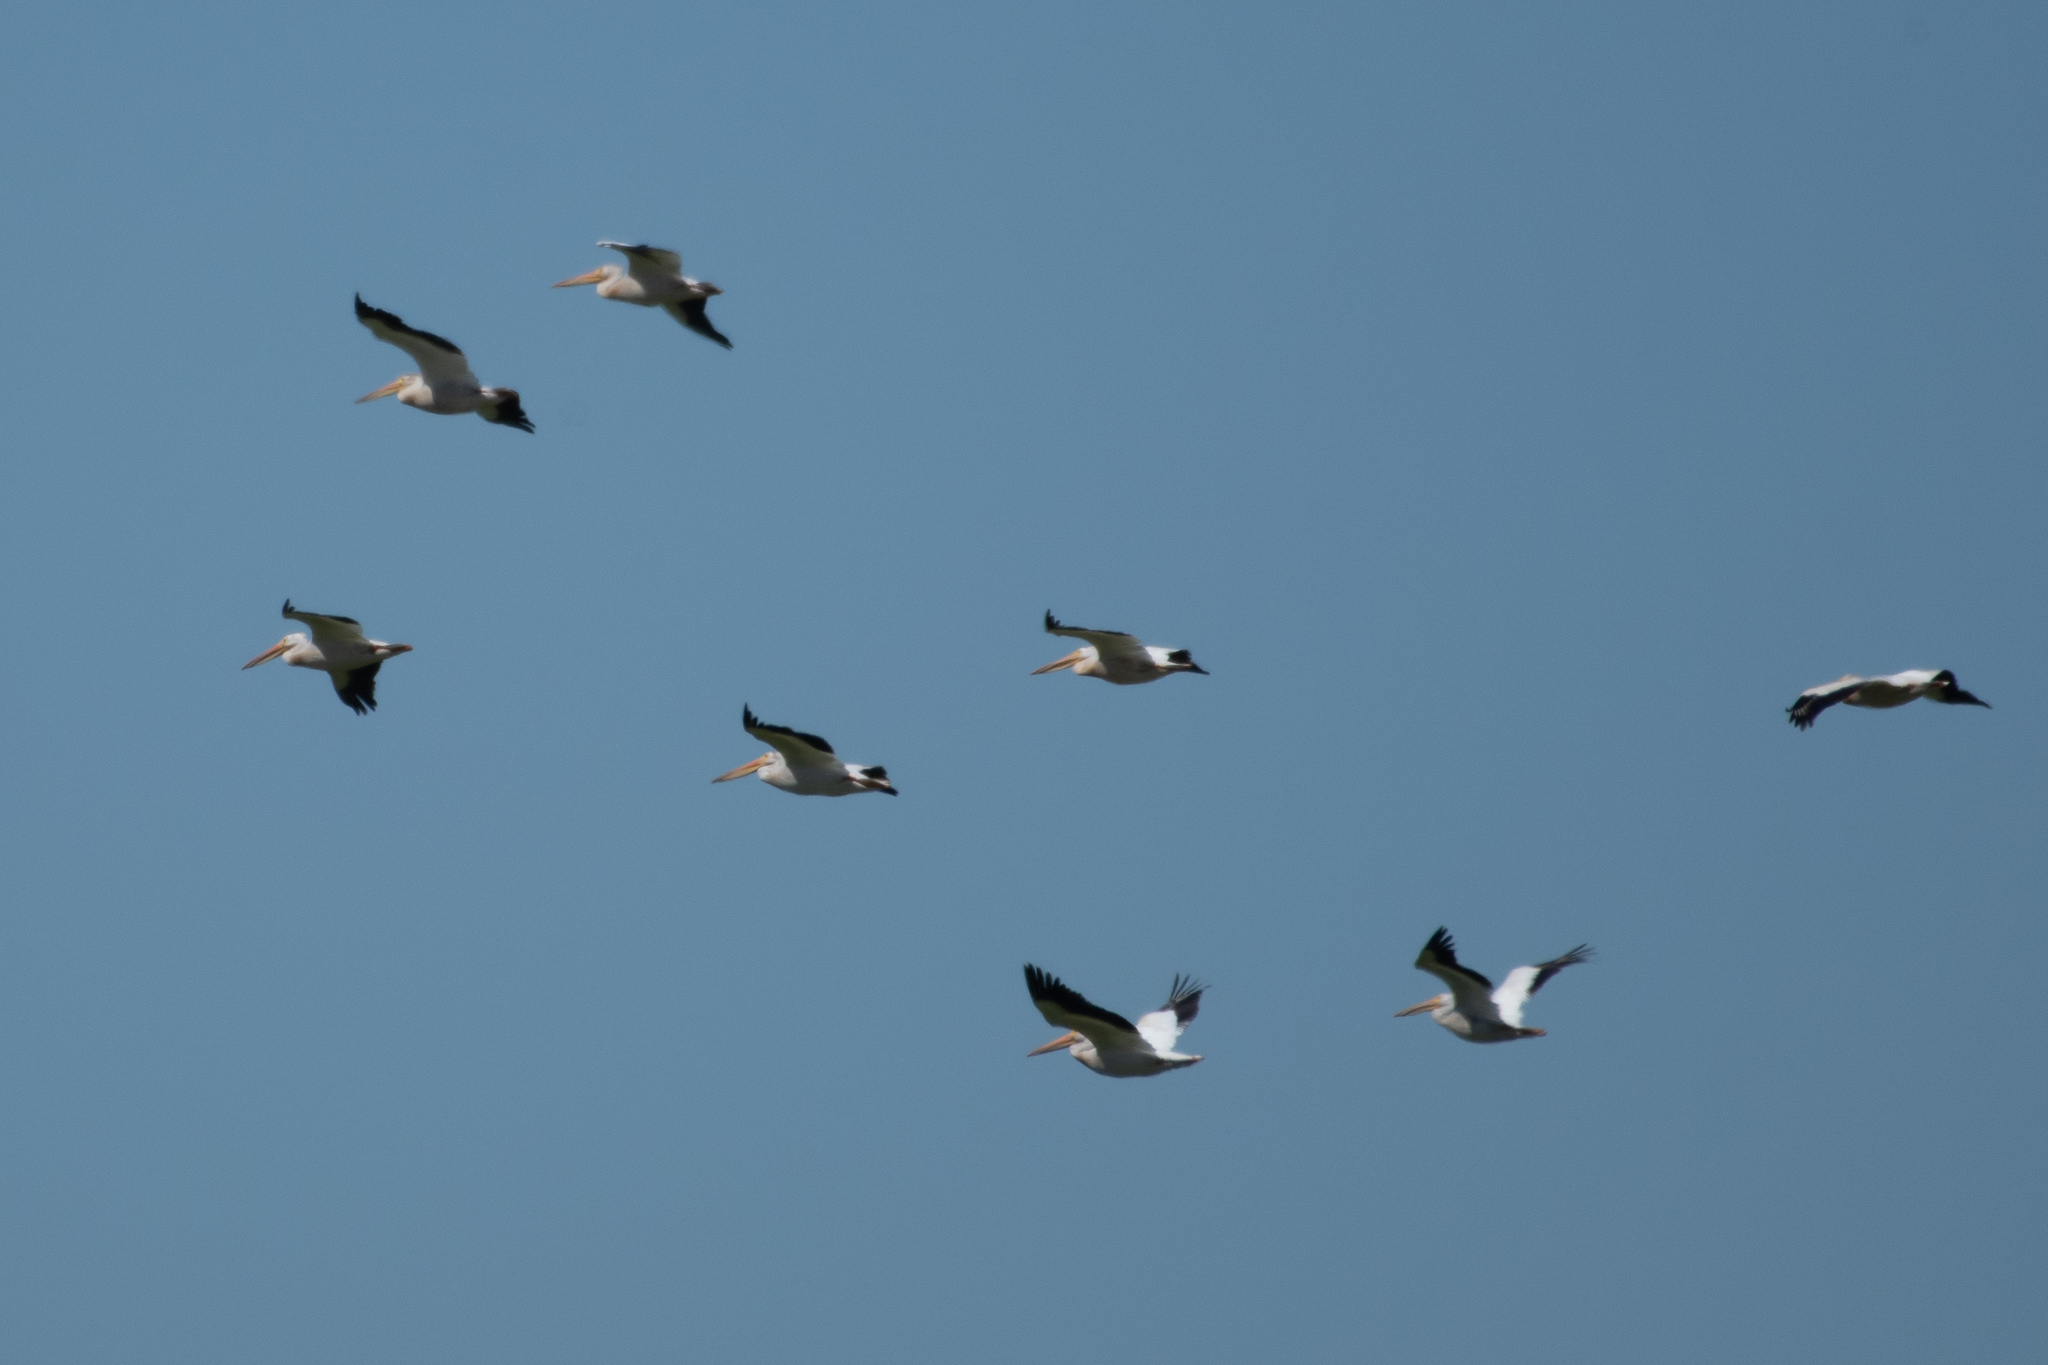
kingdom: Animalia
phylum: Chordata
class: Aves
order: Pelecaniformes
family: Pelecanidae
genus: Pelecanus
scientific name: Pelecanus erythrorhynchos
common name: American white pelican
